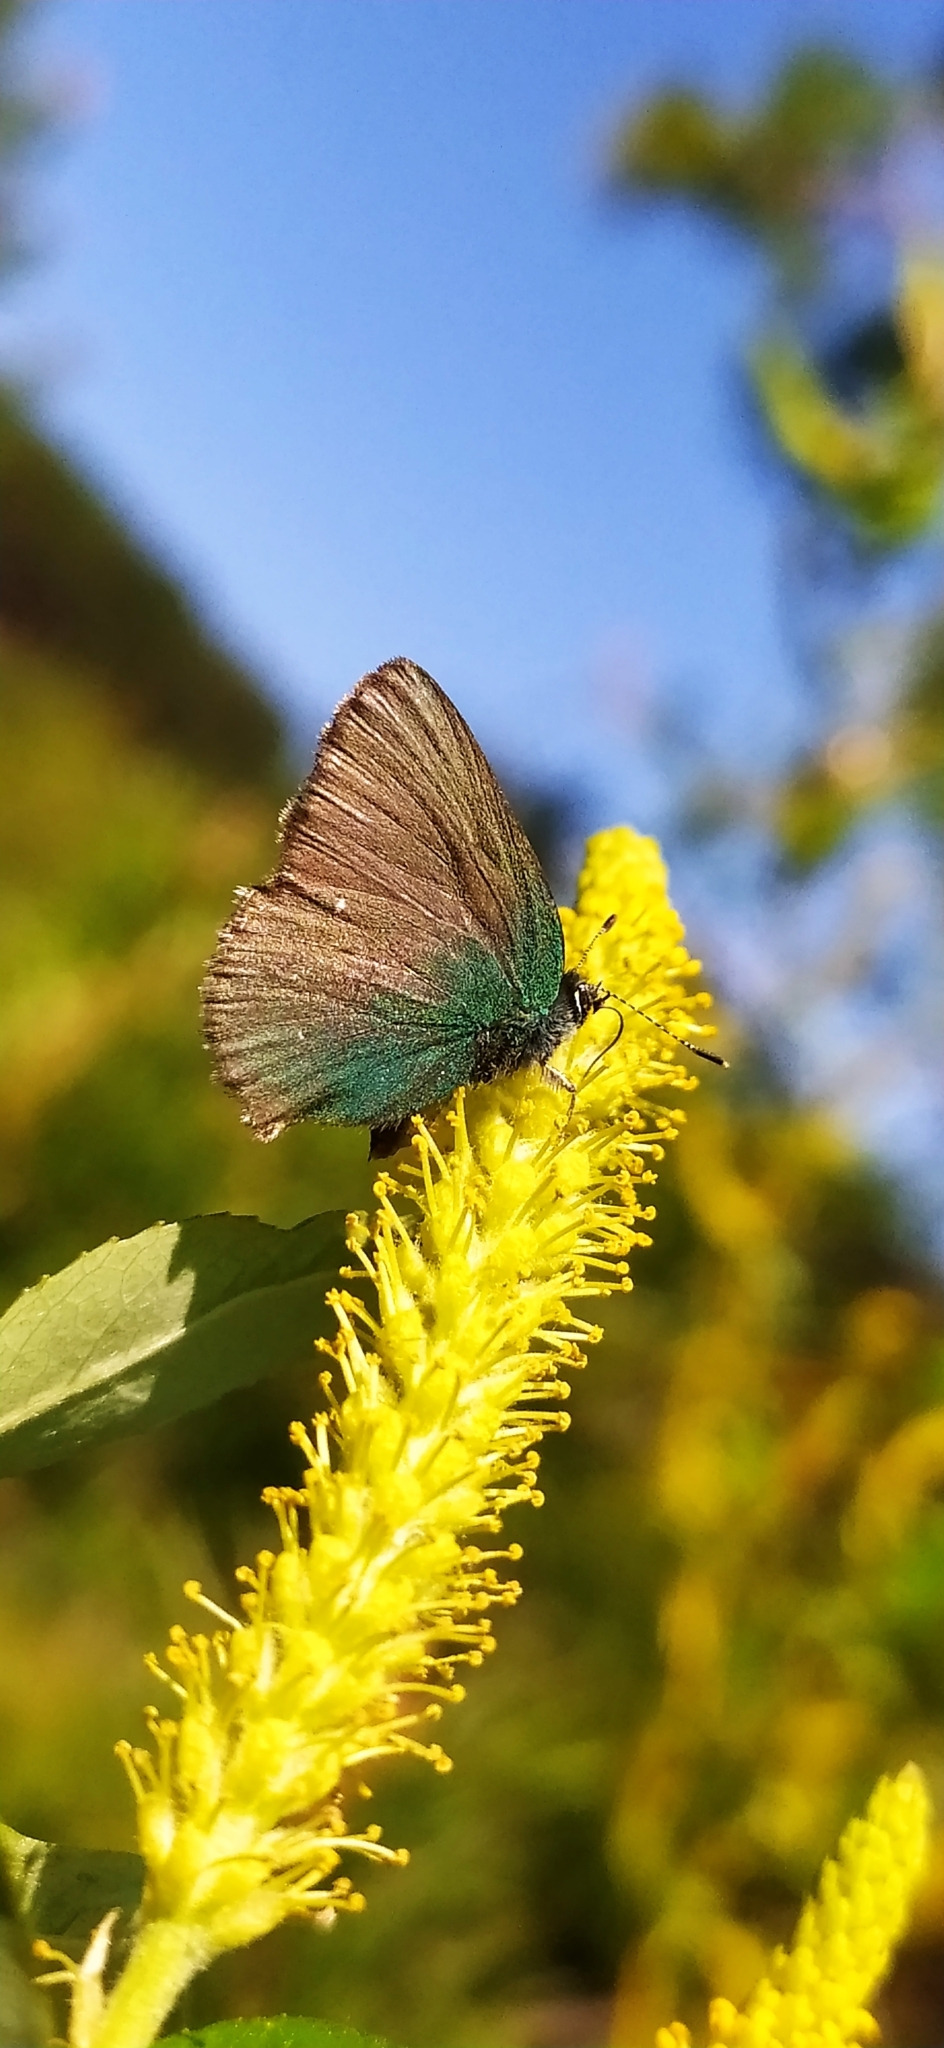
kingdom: Animalia
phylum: Arthropoda
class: Insecta
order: Lepidoptera
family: Lycaenidae
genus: Callophrys
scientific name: Callophrys rubi
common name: Green hairstreak
